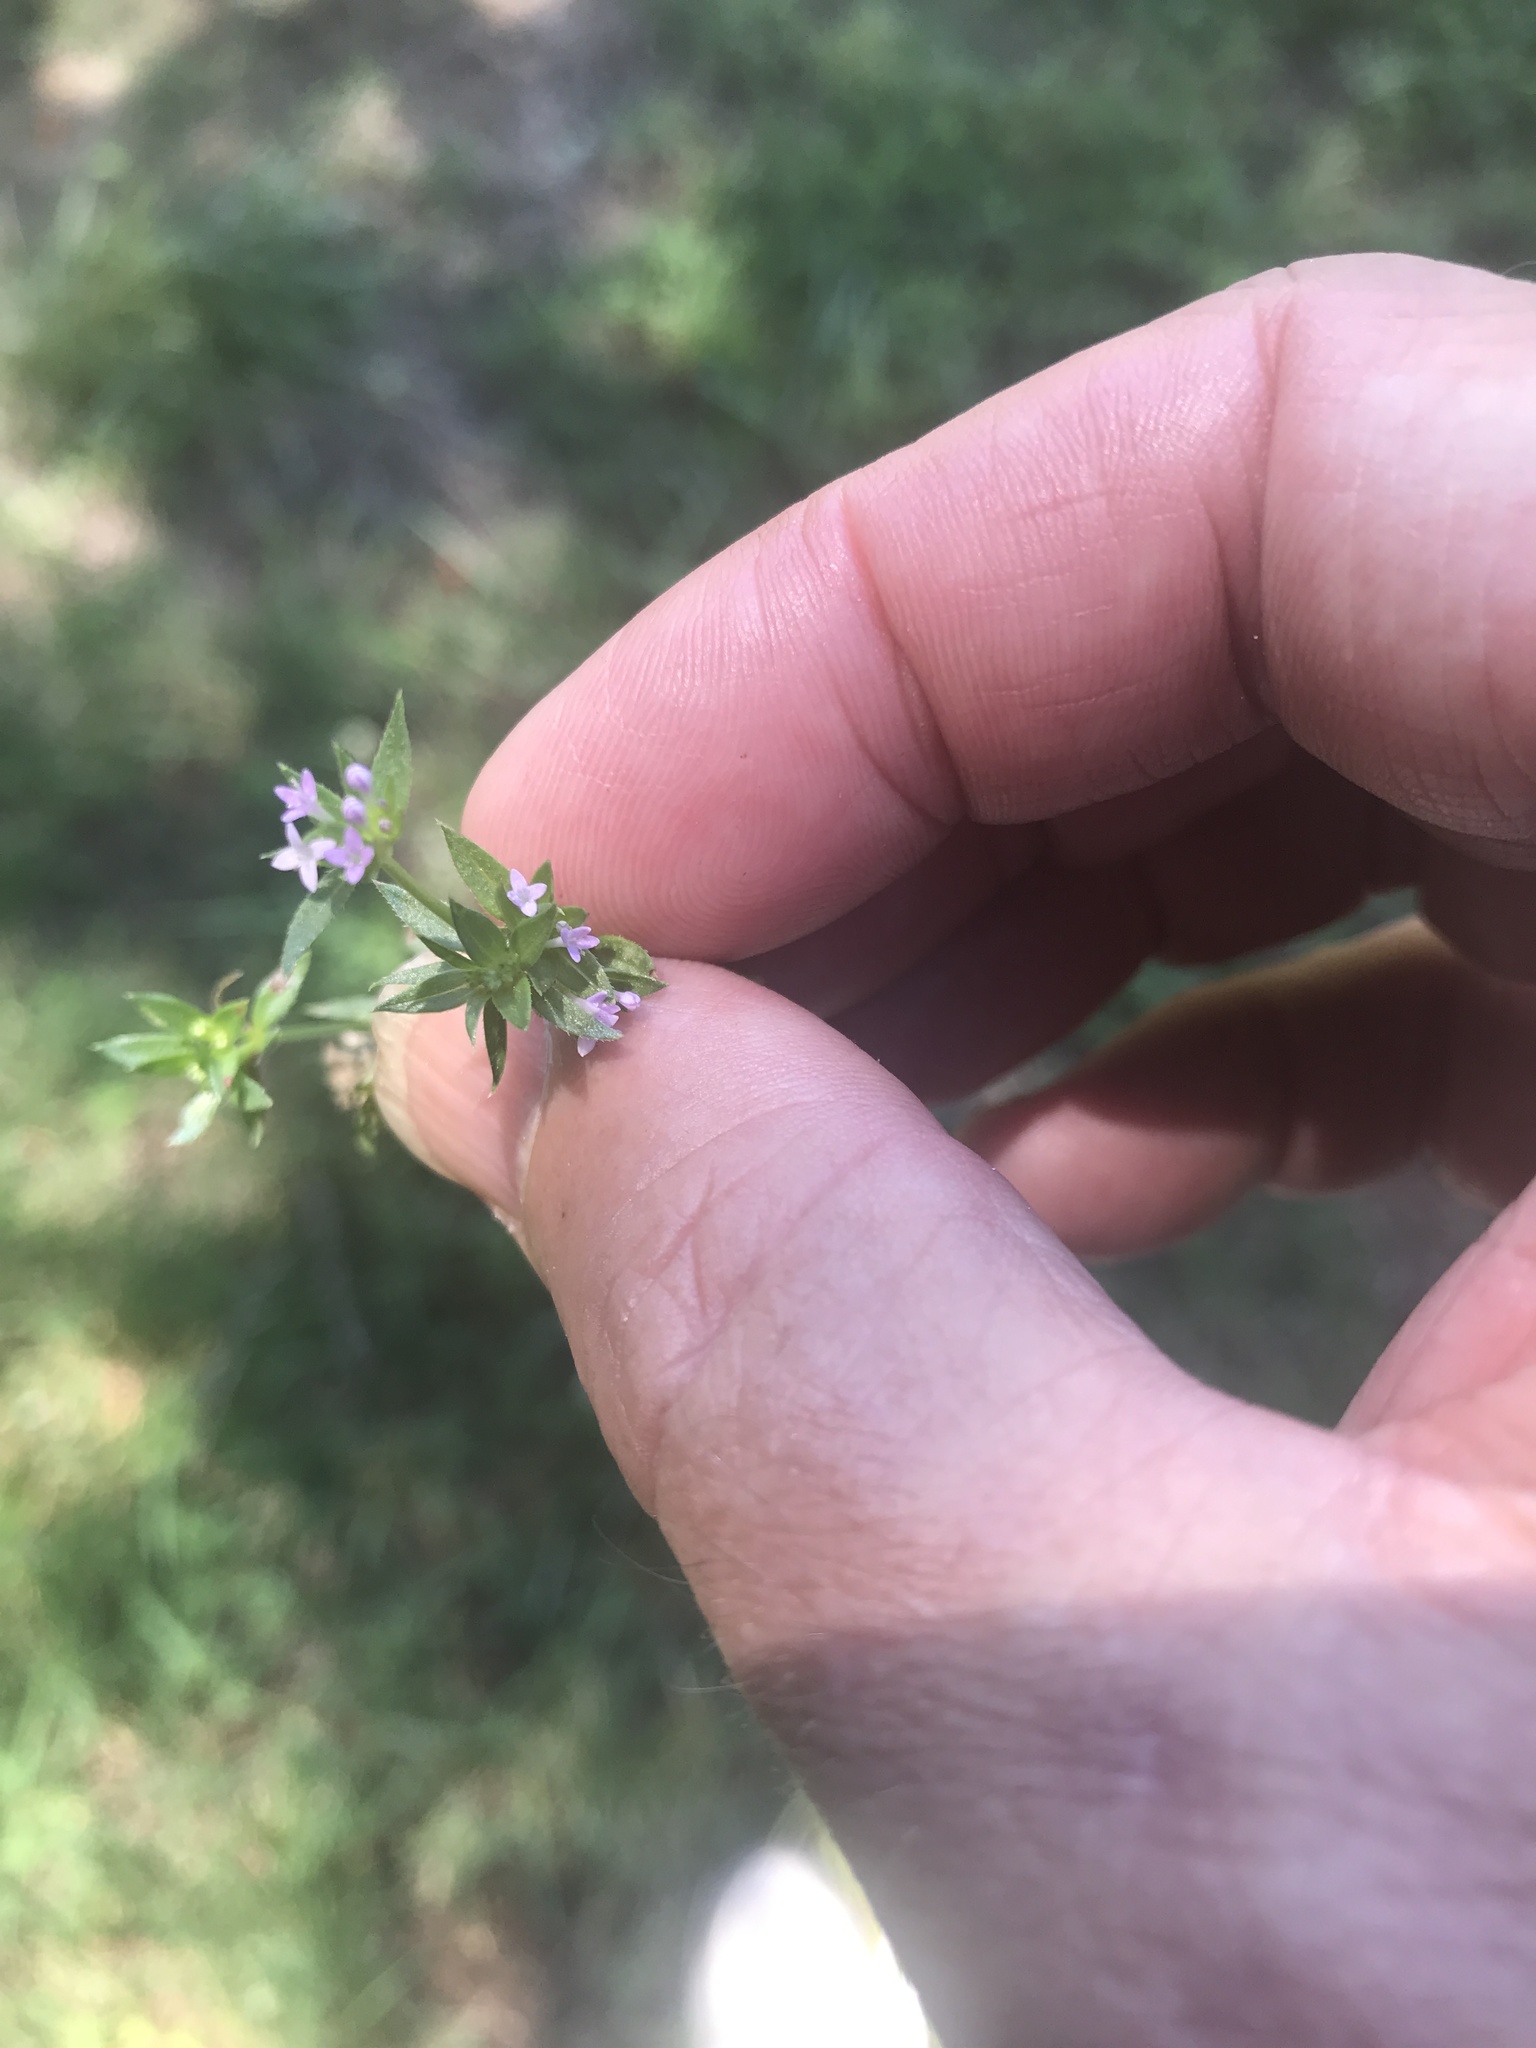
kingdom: Plantae
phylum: Tracheophyta
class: Magnoliopsida
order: Gentianales
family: Rubiaceae
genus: Sherardia
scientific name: Sherardia arvensis
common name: Field madder
